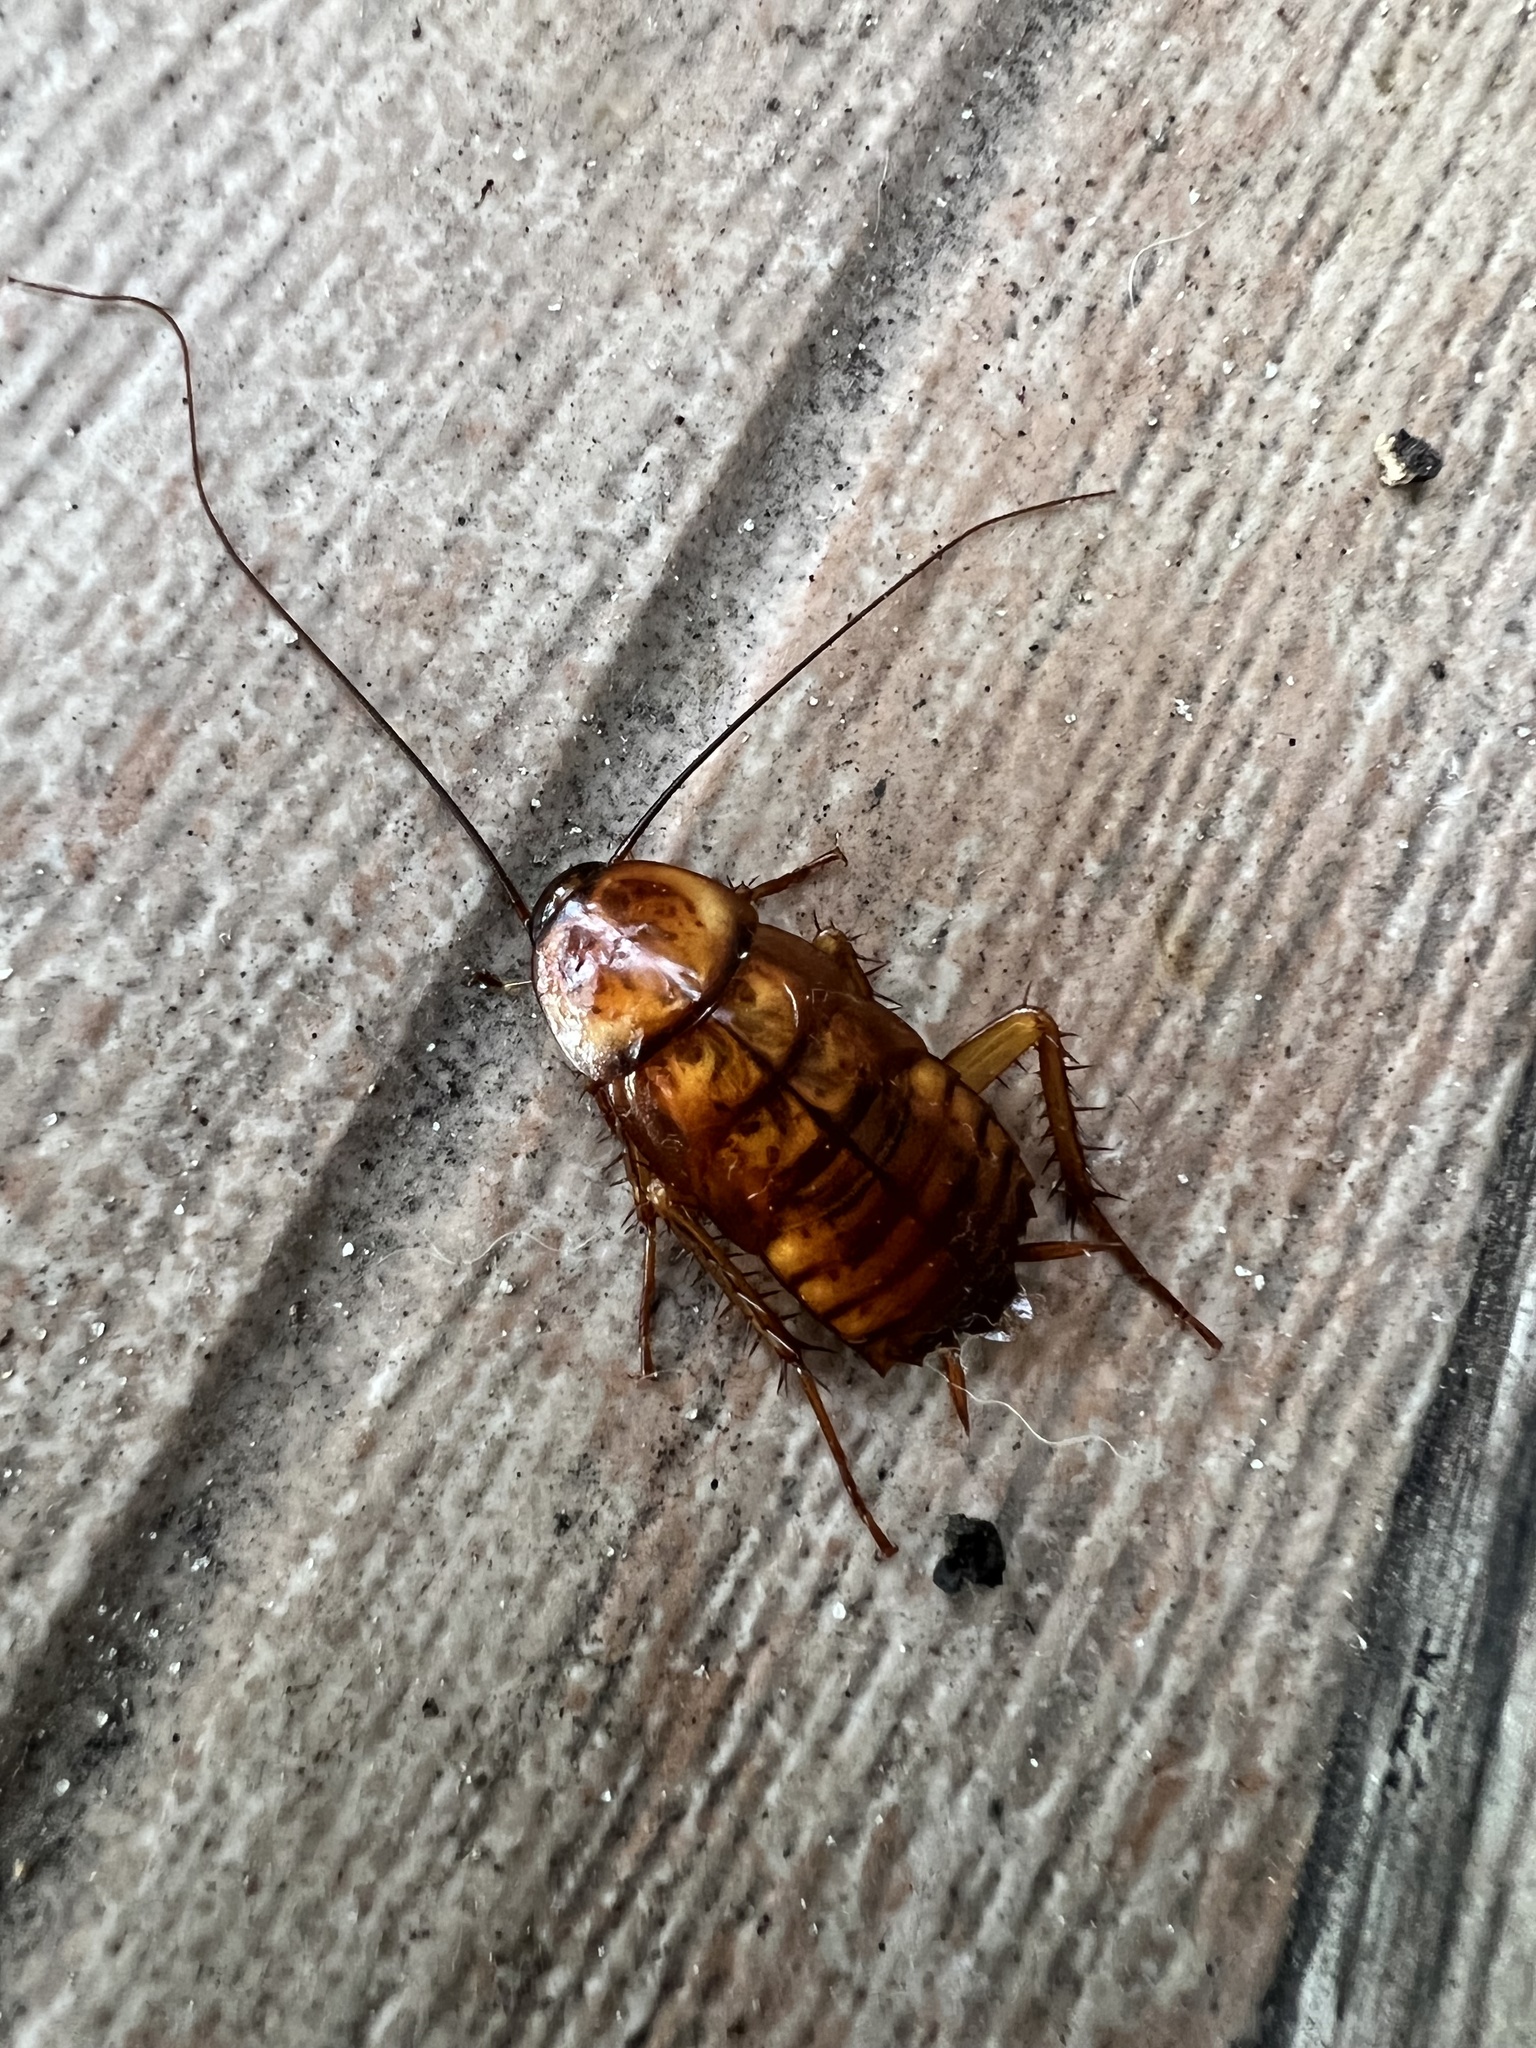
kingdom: Animalia
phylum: Arthropoda
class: Insecta
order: Blattodea
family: Blattidae
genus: Periplaneta
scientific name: Periplaneta americana
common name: American cockroach
